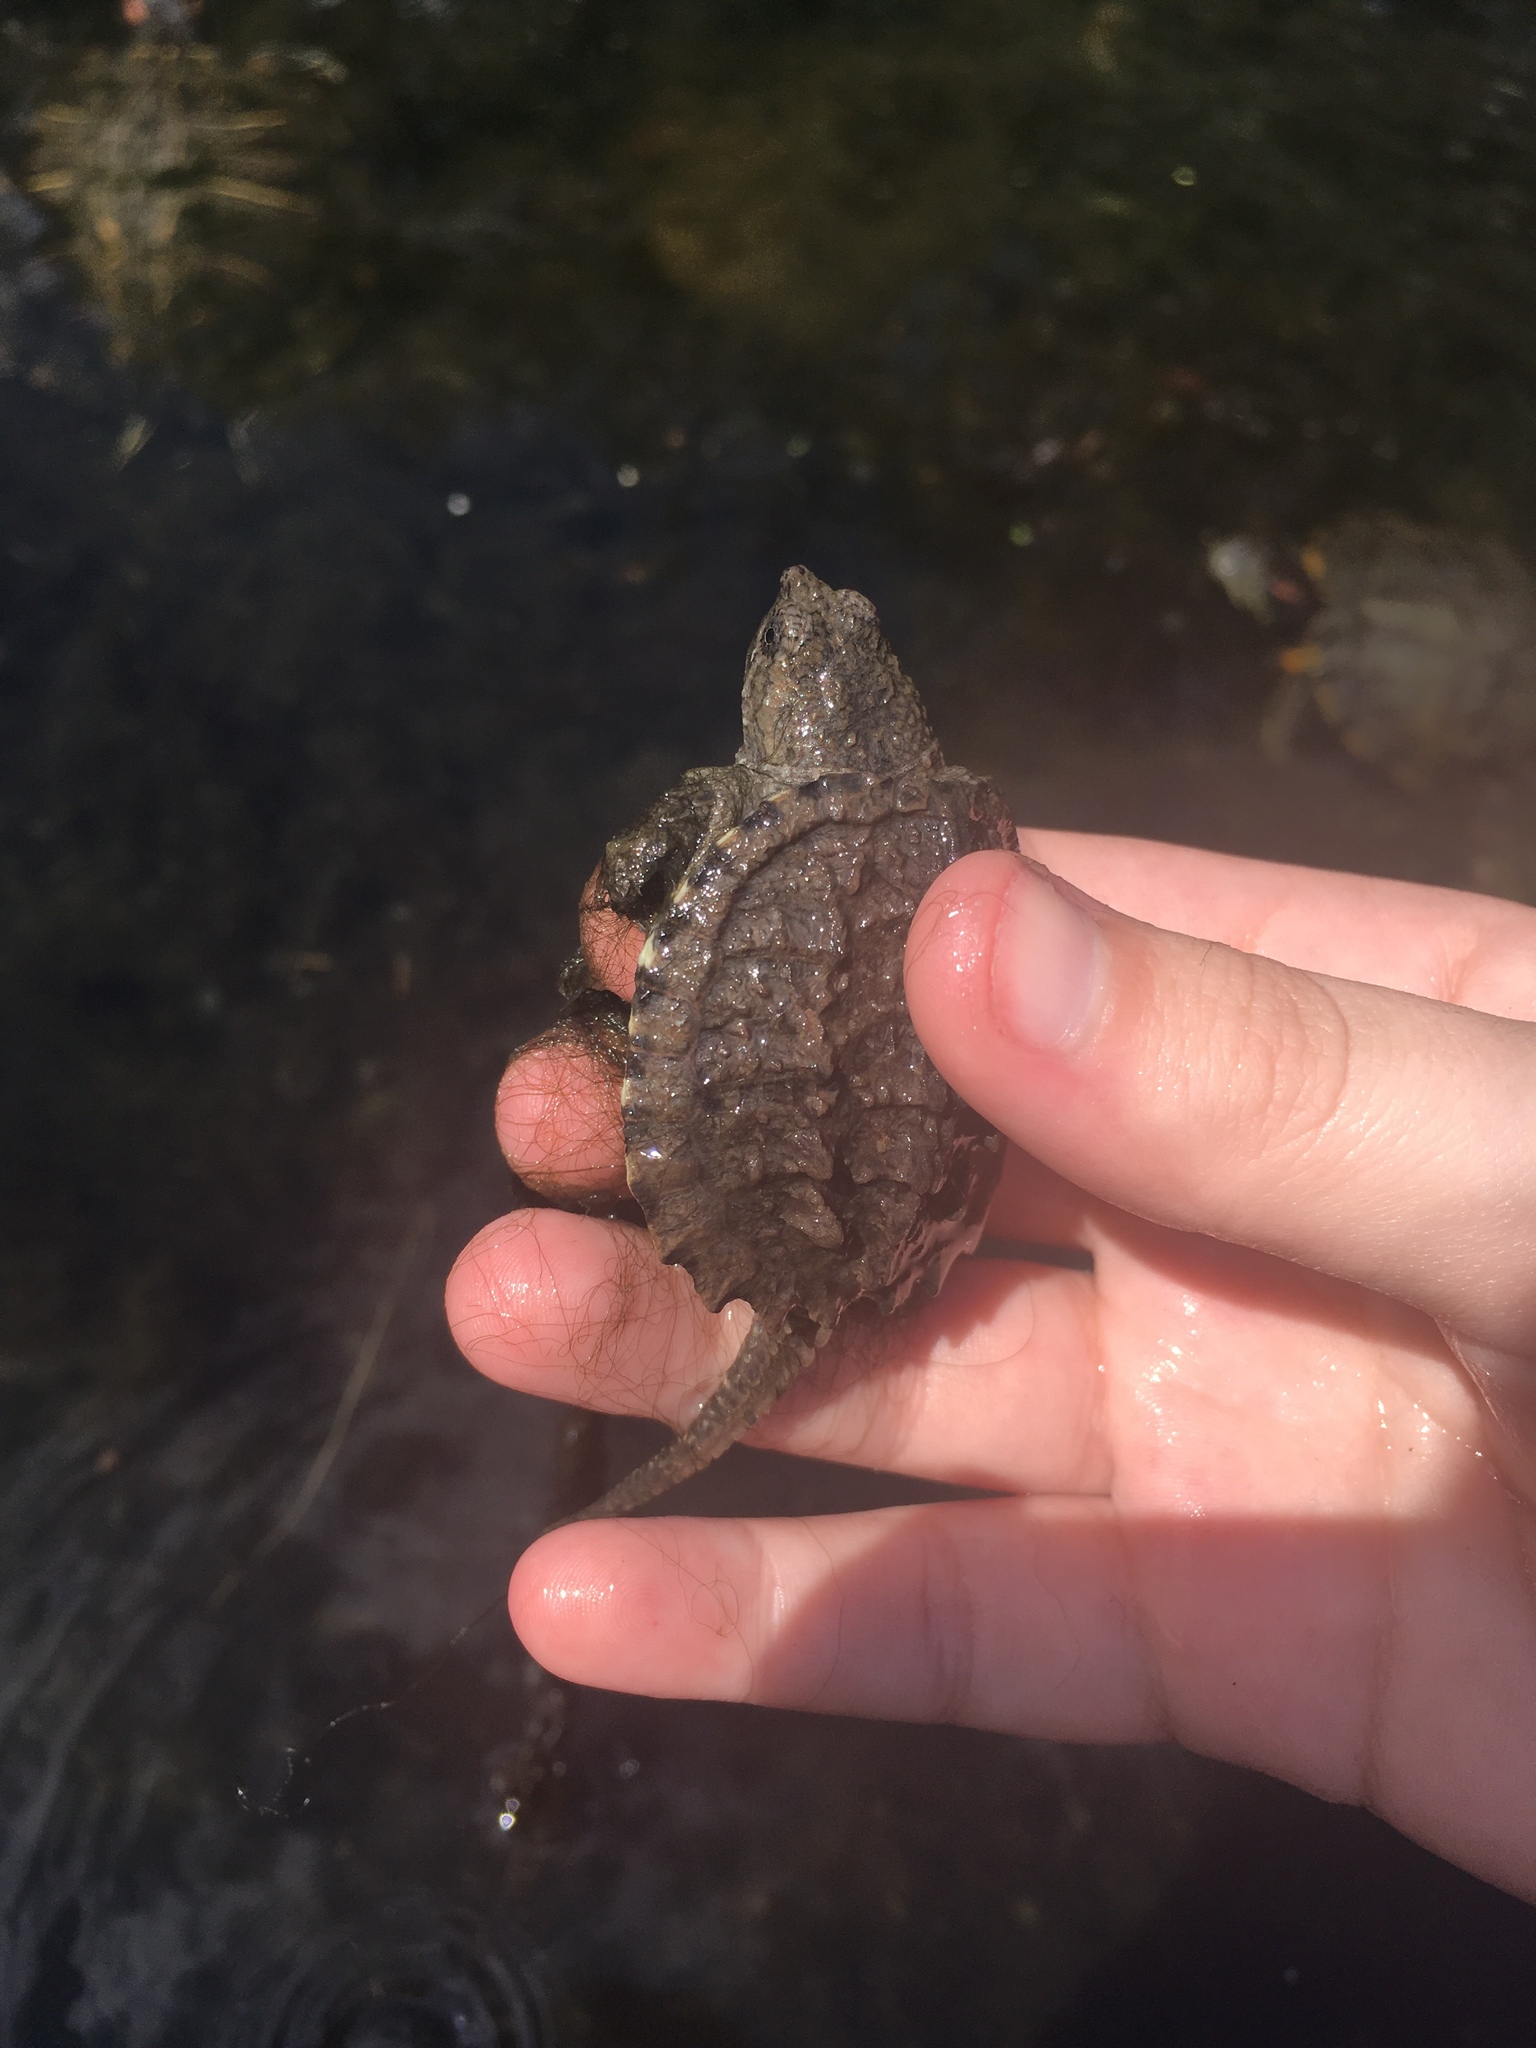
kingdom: Animalia
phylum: Chordata
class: Testudines
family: Chelydridae
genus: Chelydra
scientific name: Chelydra serpentina
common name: Common snapping turtle
